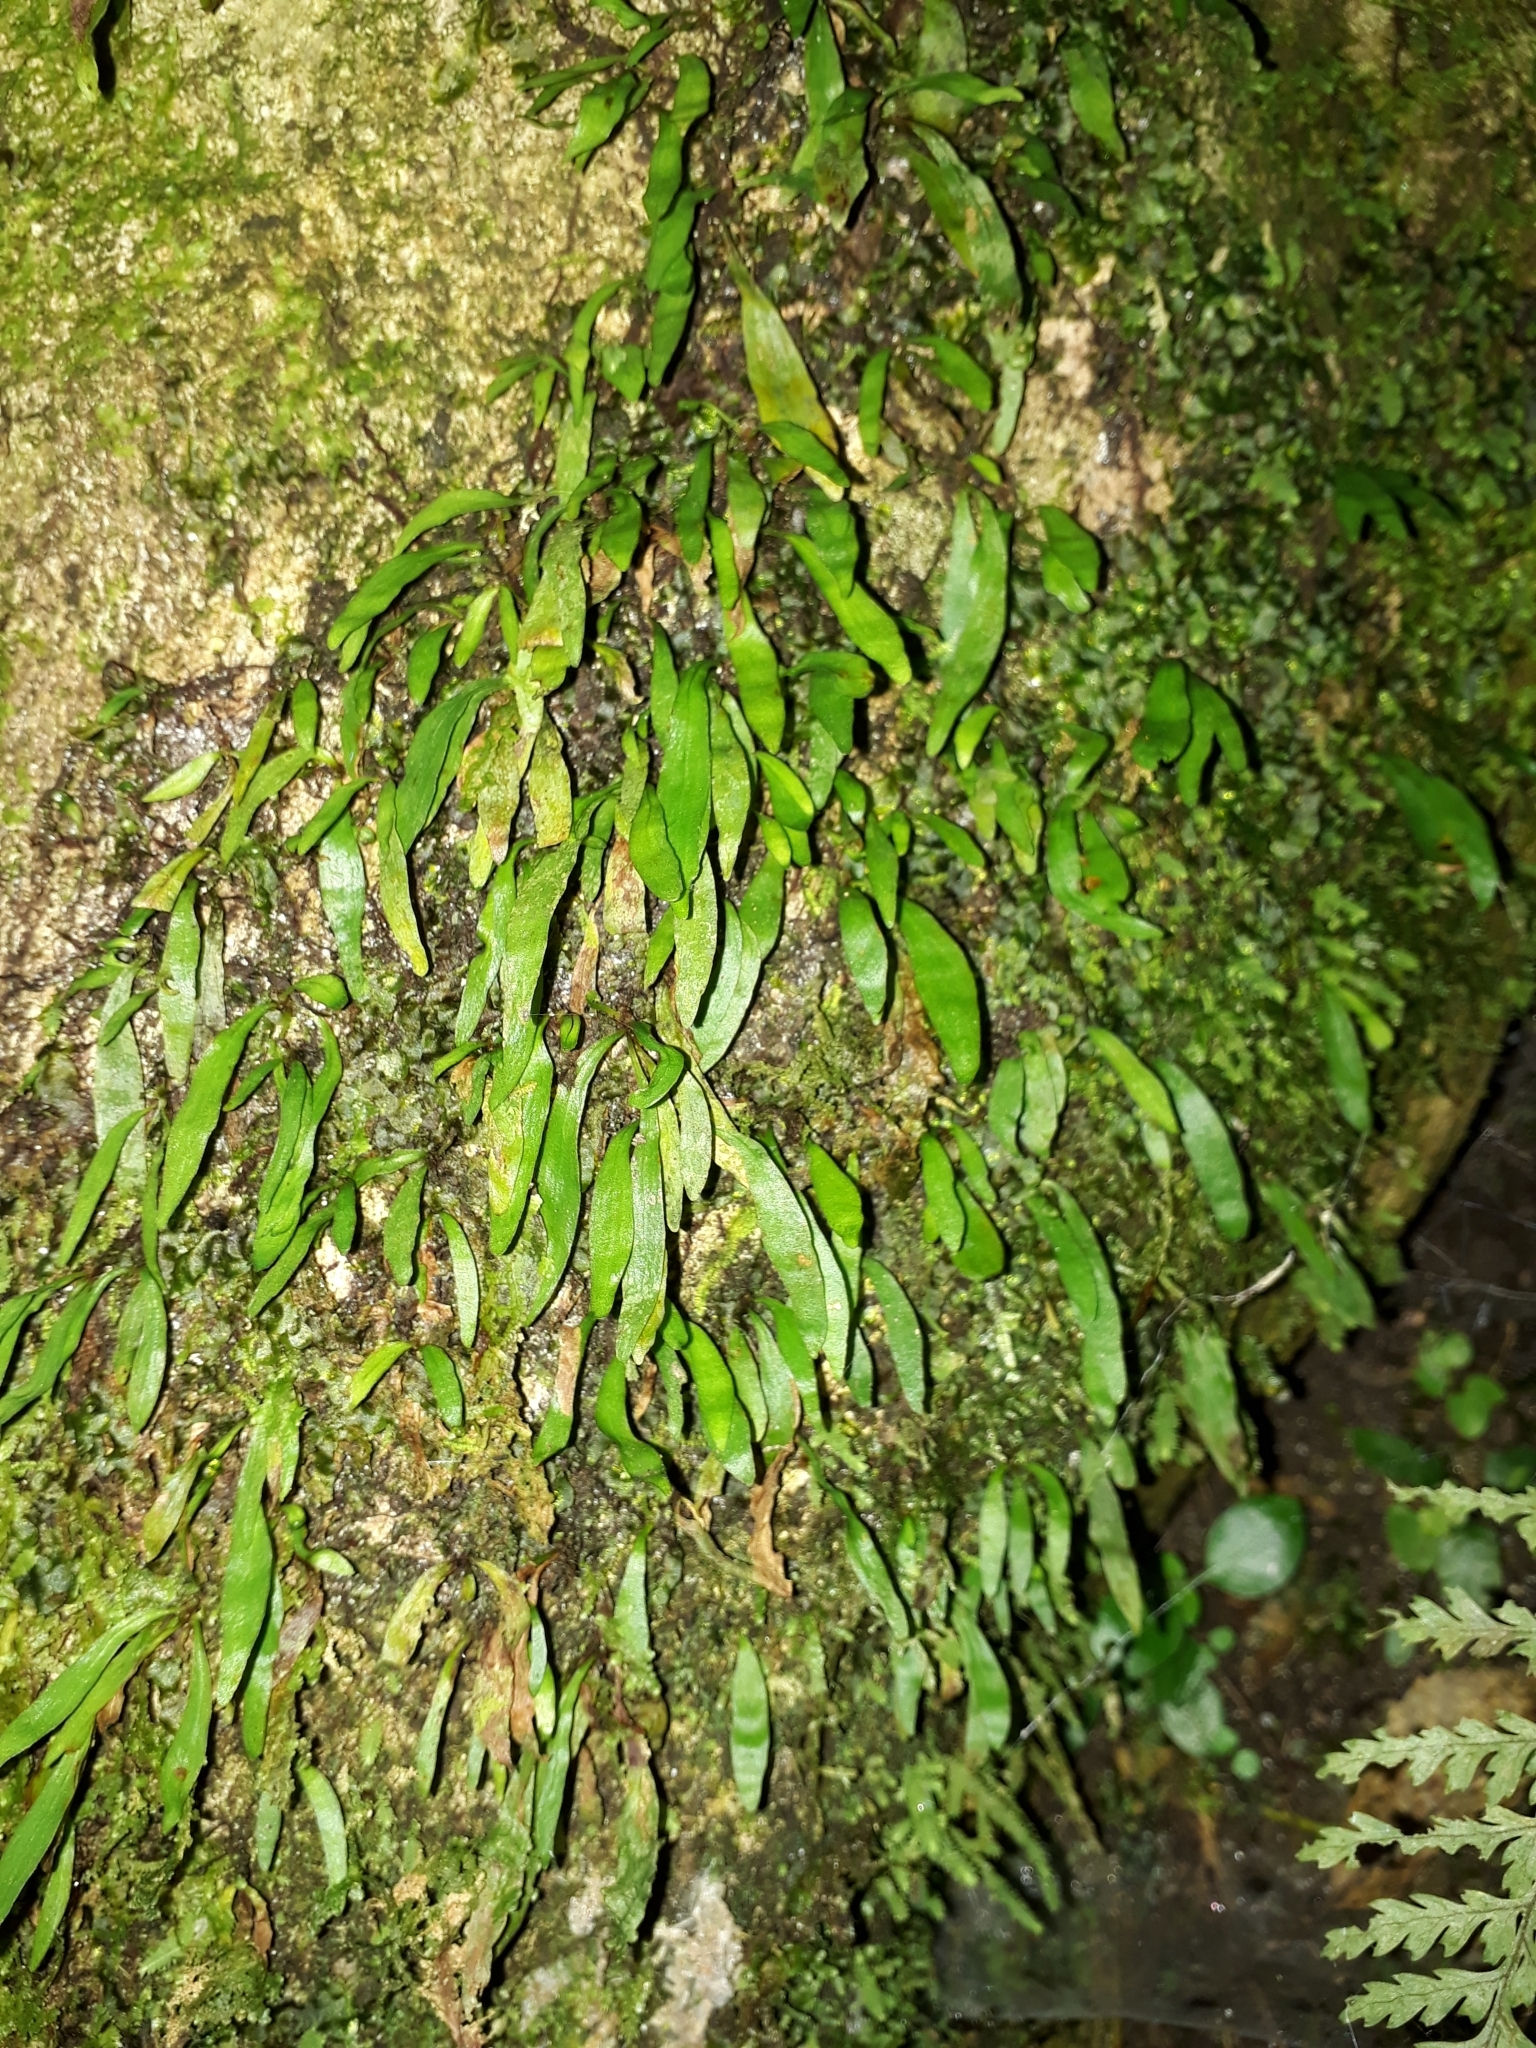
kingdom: Plantae
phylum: Tracheophyta
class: Polypodiopsida
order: Polypodiales
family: Polypodiaceae
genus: Loxogramme
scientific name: Loxogramme dictyopteris
